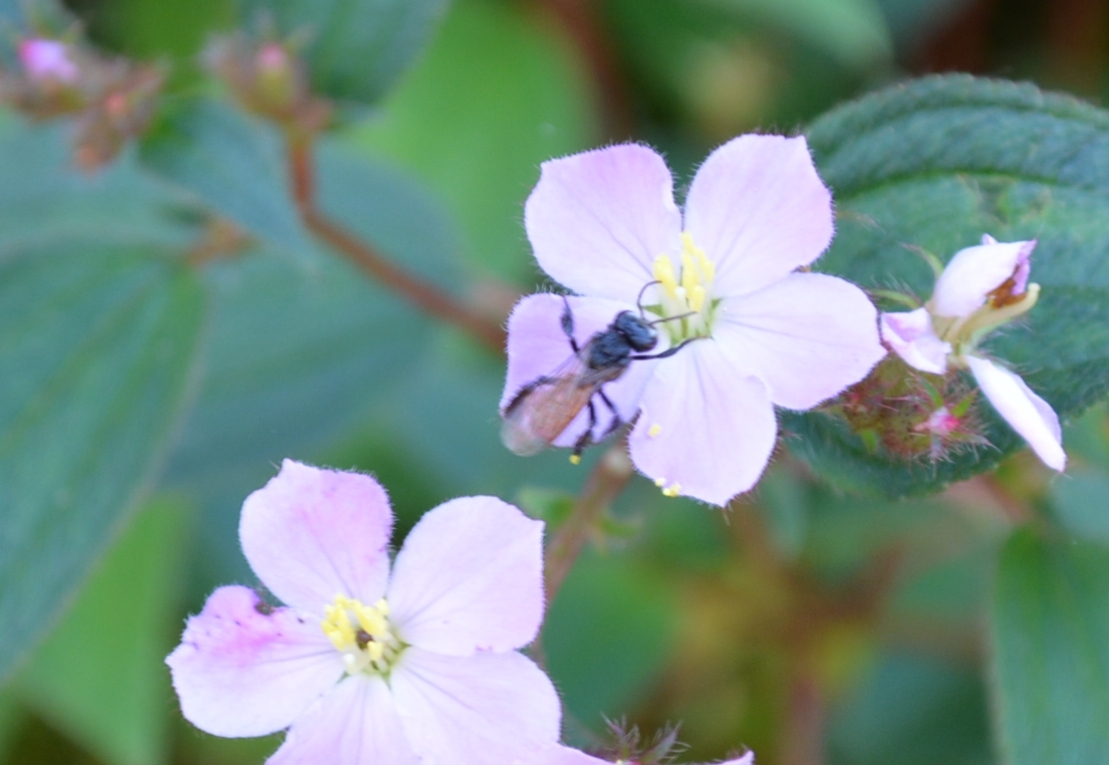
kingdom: Animalia
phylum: Arthropoda
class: Insecta
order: Hymenoptera
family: Apidae
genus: Trigona
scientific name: Trigona fulviventris
